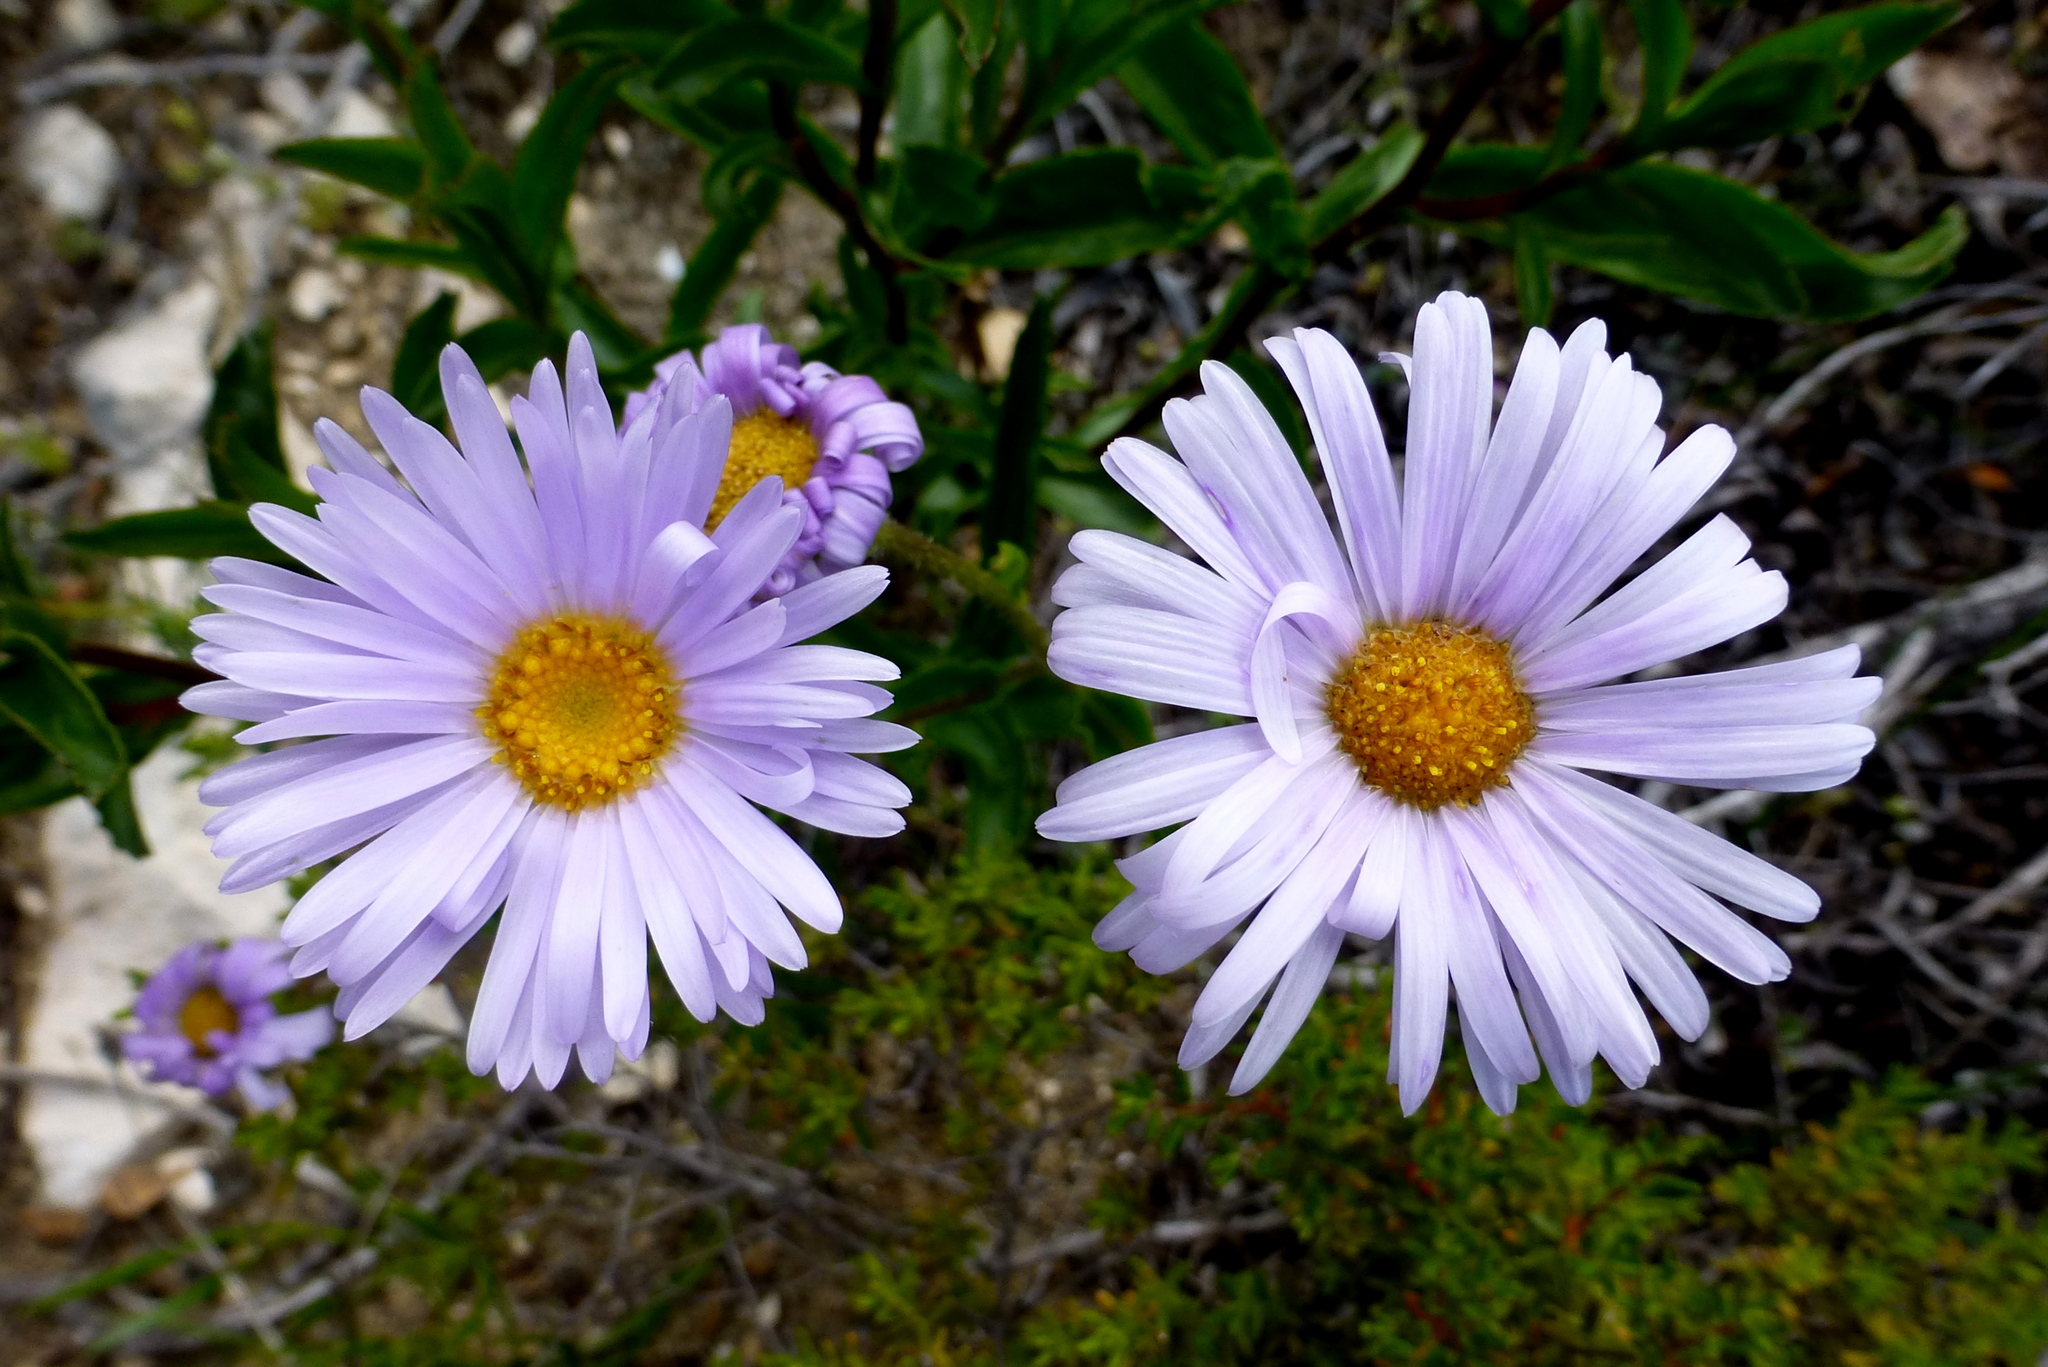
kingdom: Plantae
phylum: Tracheophyta
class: Magnoliopsida
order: Asterales
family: Asteraceae
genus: Pembertonia
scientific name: Pembertonia latisquamea
